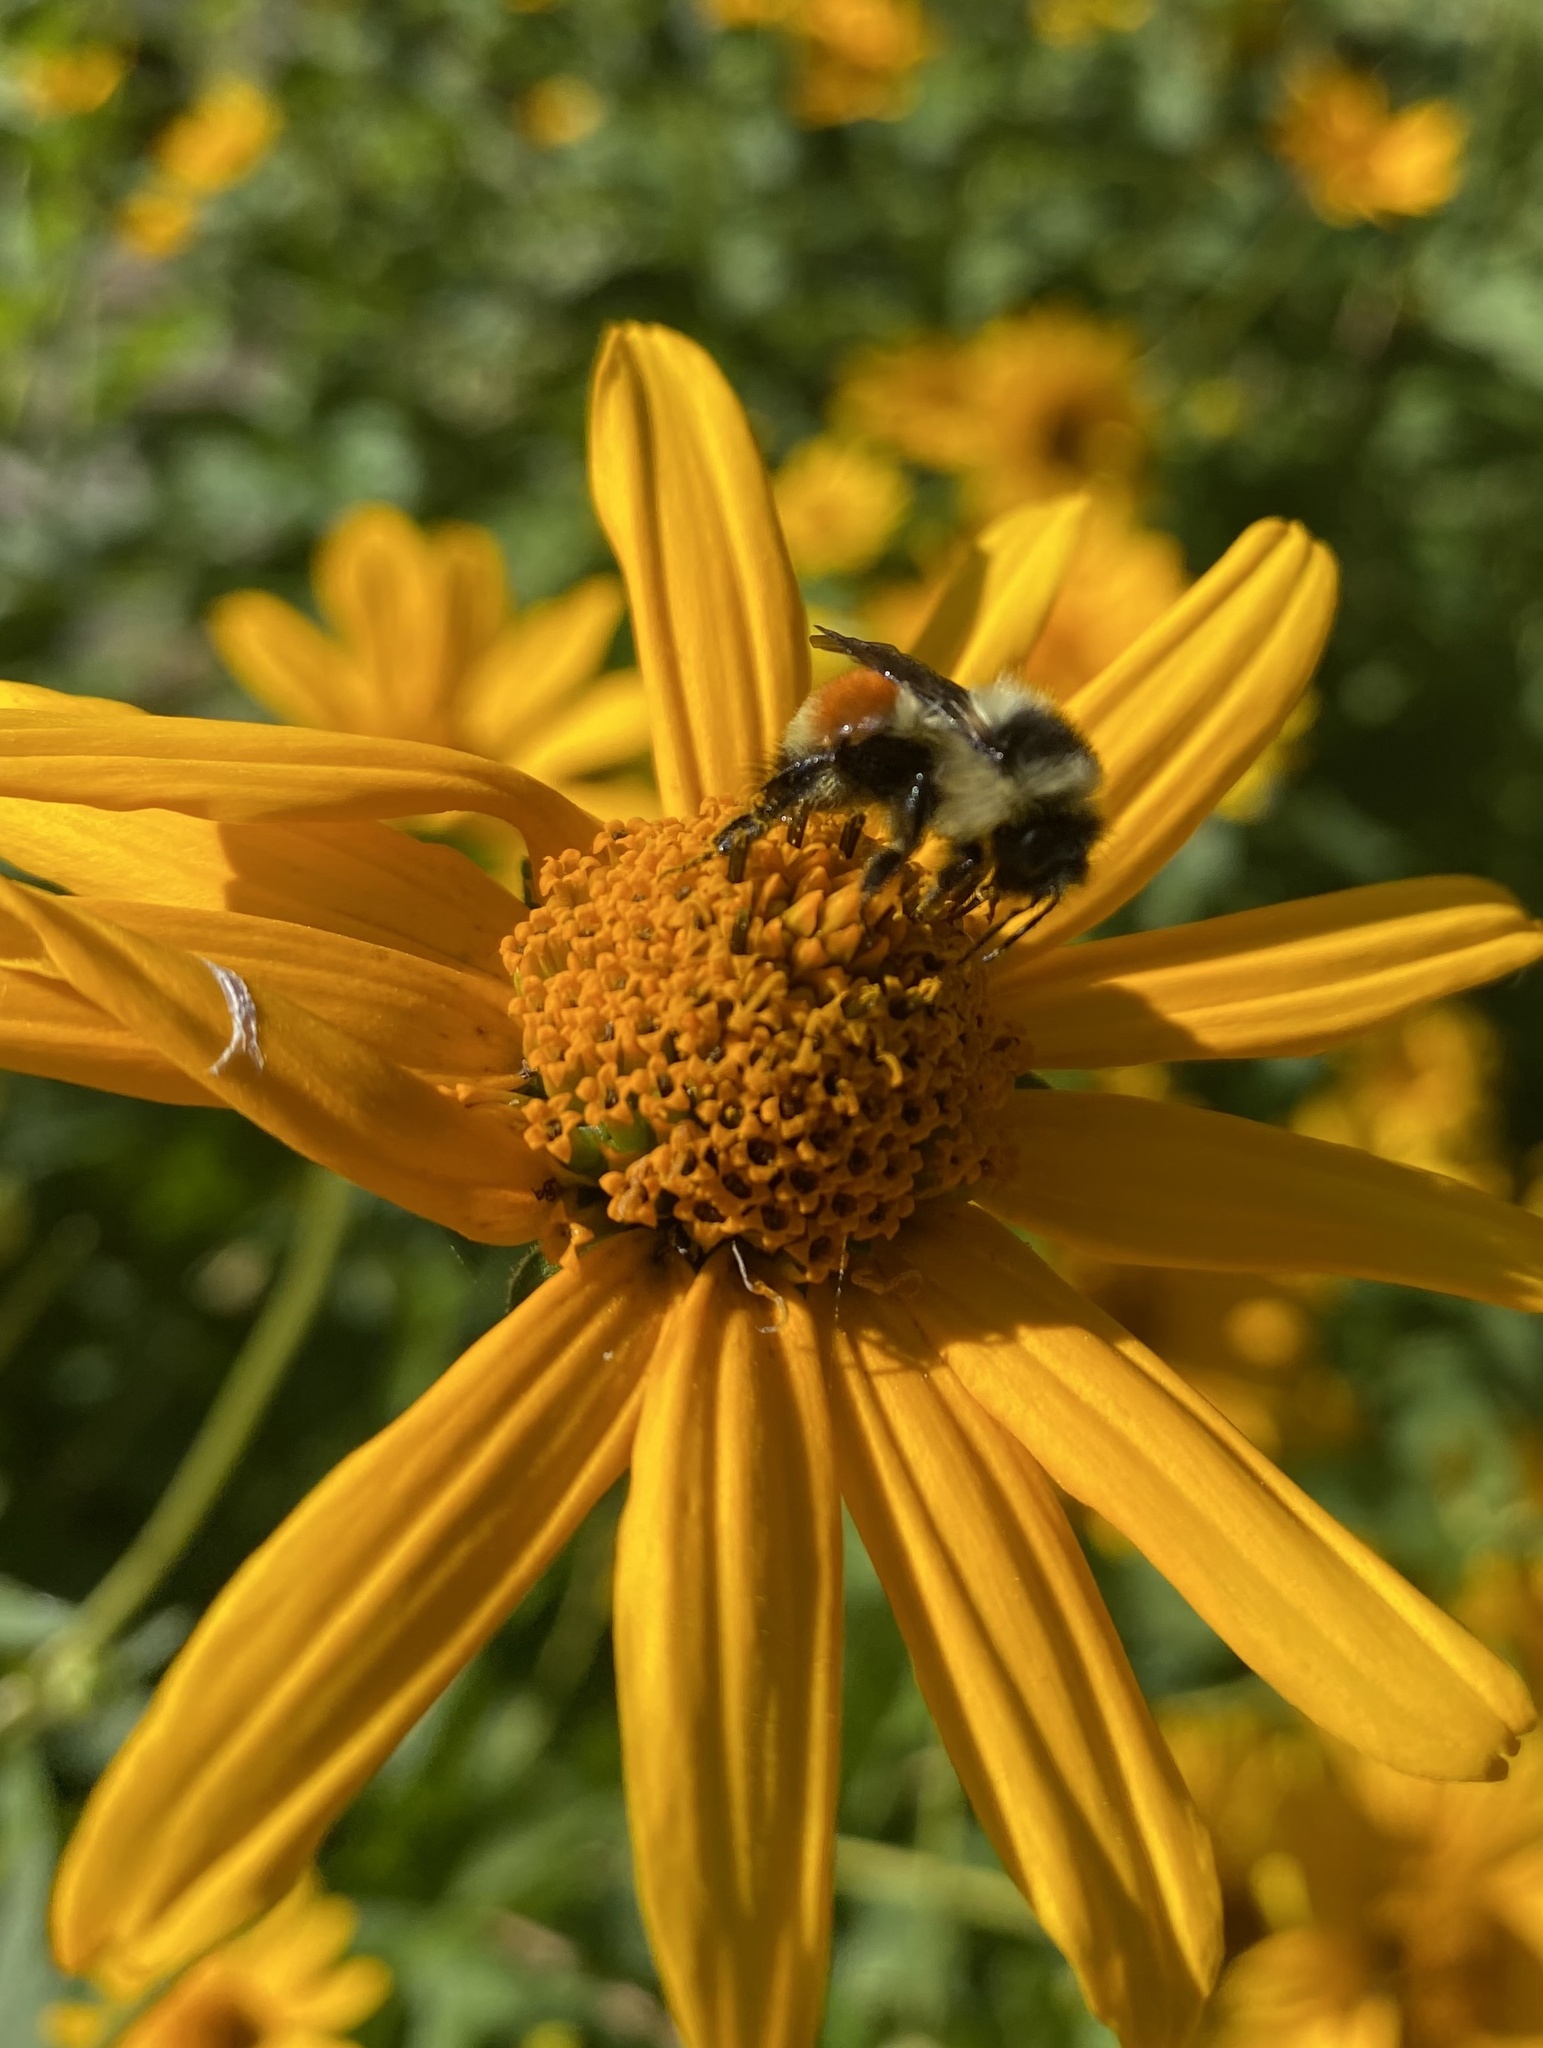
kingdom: Animalia
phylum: Arthropoda
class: Insecta
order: Hymenoptera
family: Apidae
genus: Bombus
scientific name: Bombus ternarius
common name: Tri-colored bumble bee
